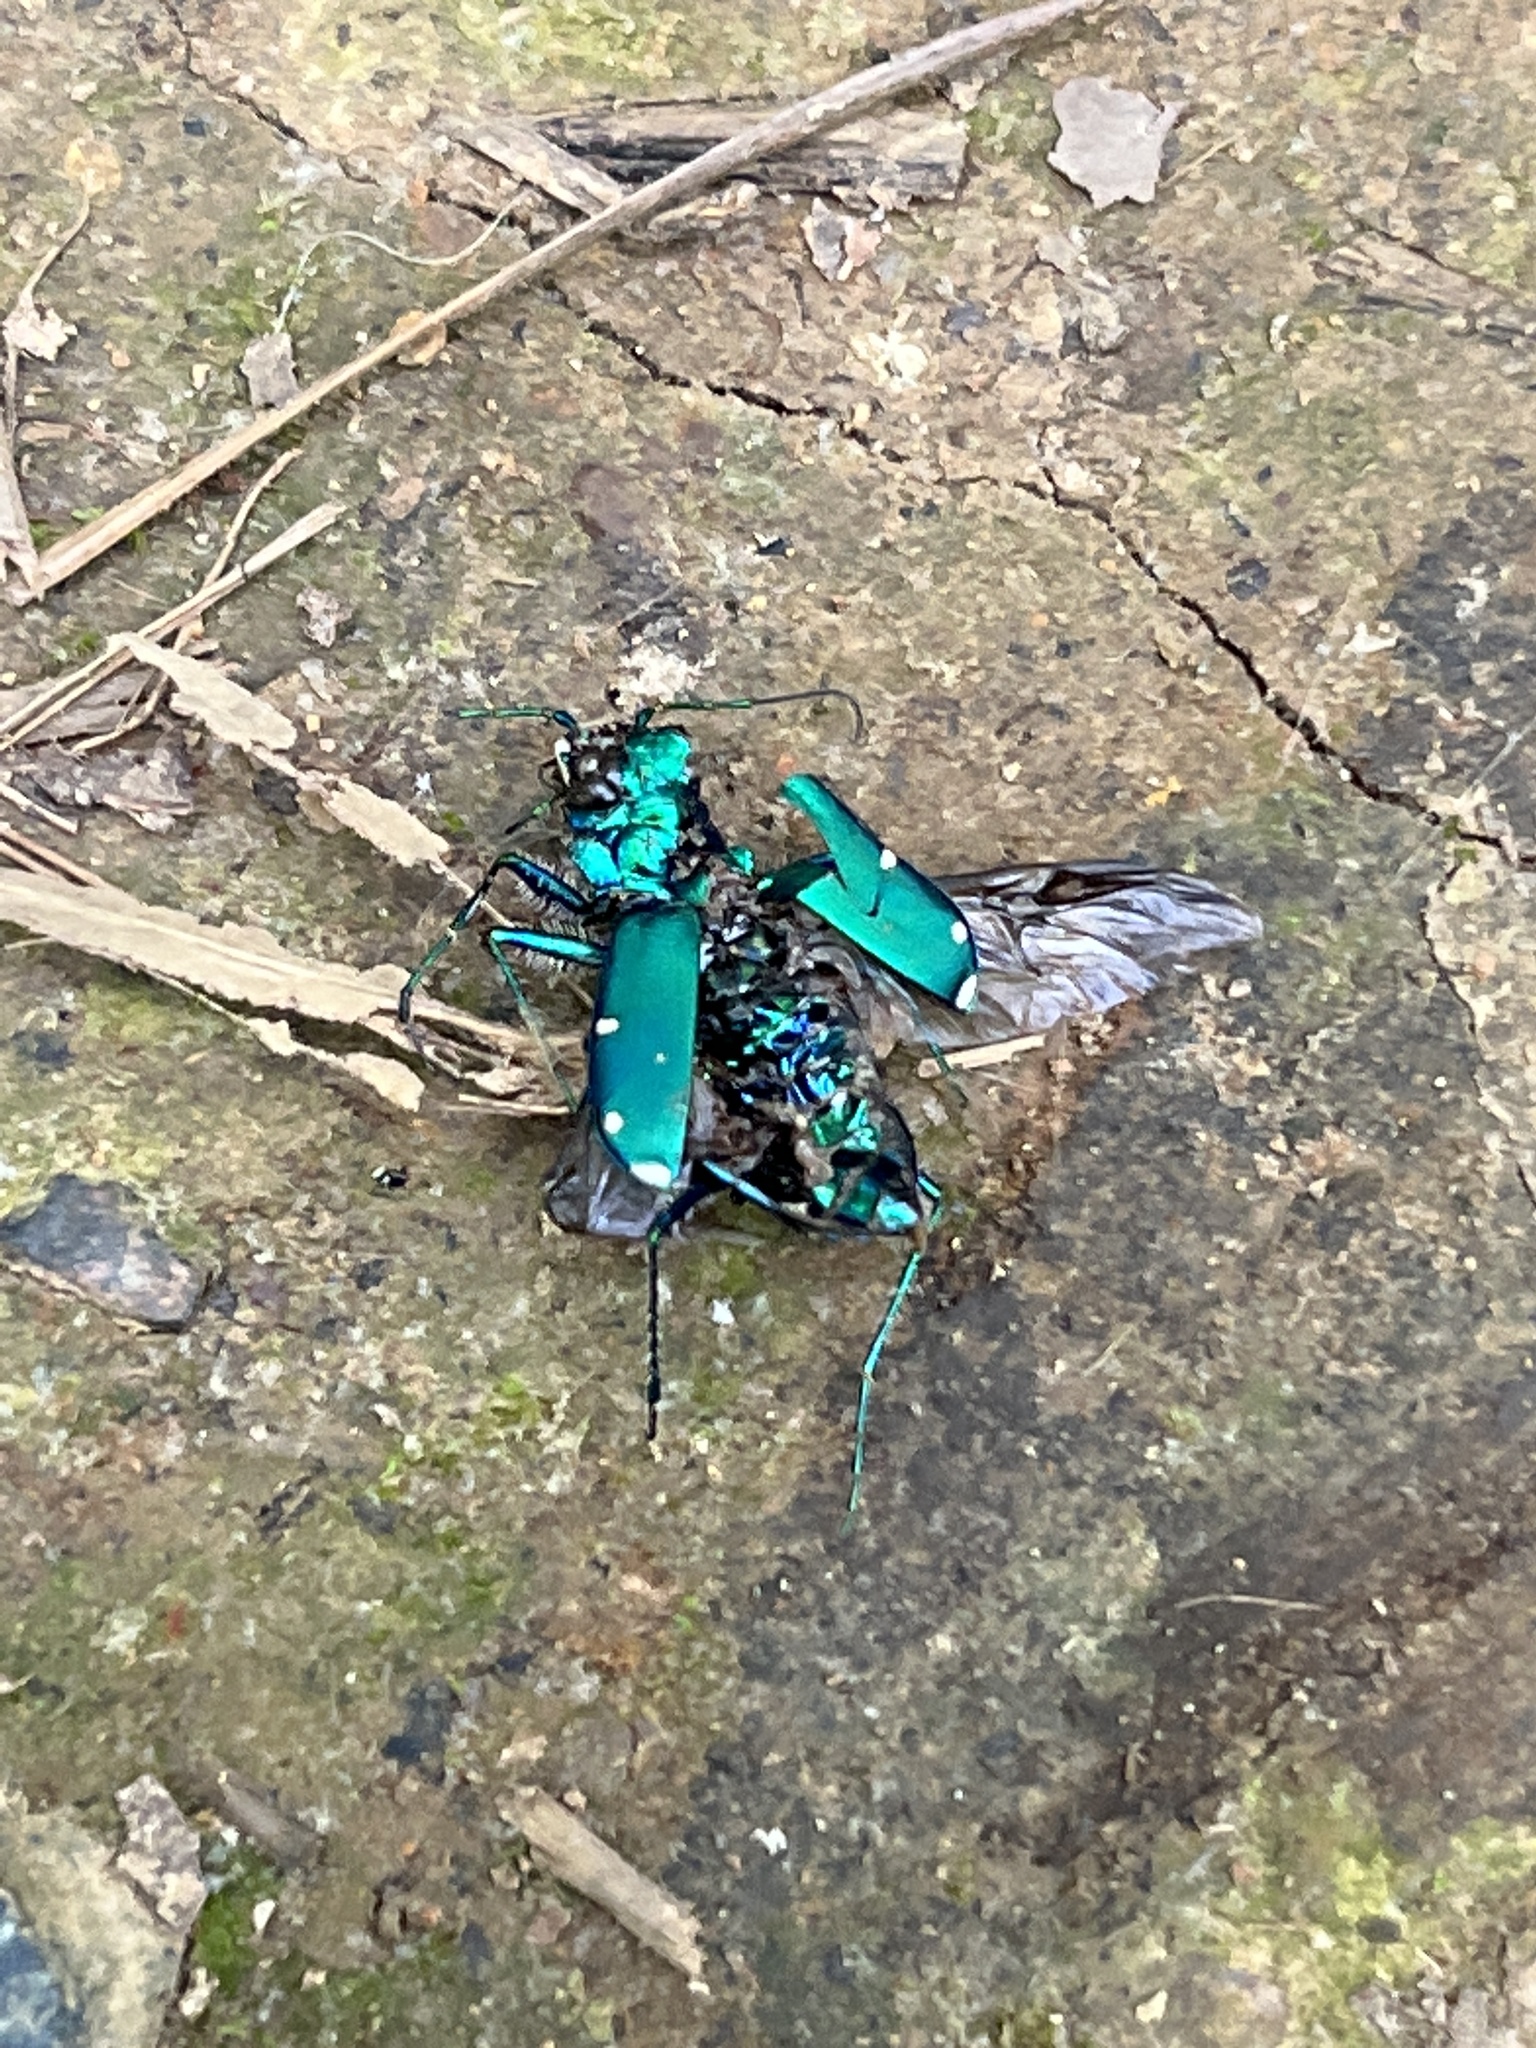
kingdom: Animalia
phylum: Arthropoda
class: Insecta
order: Coleoptera
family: Carabidae
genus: Cicindela
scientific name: Cicindela sexguttata
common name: Six-spotted tiger beetle
